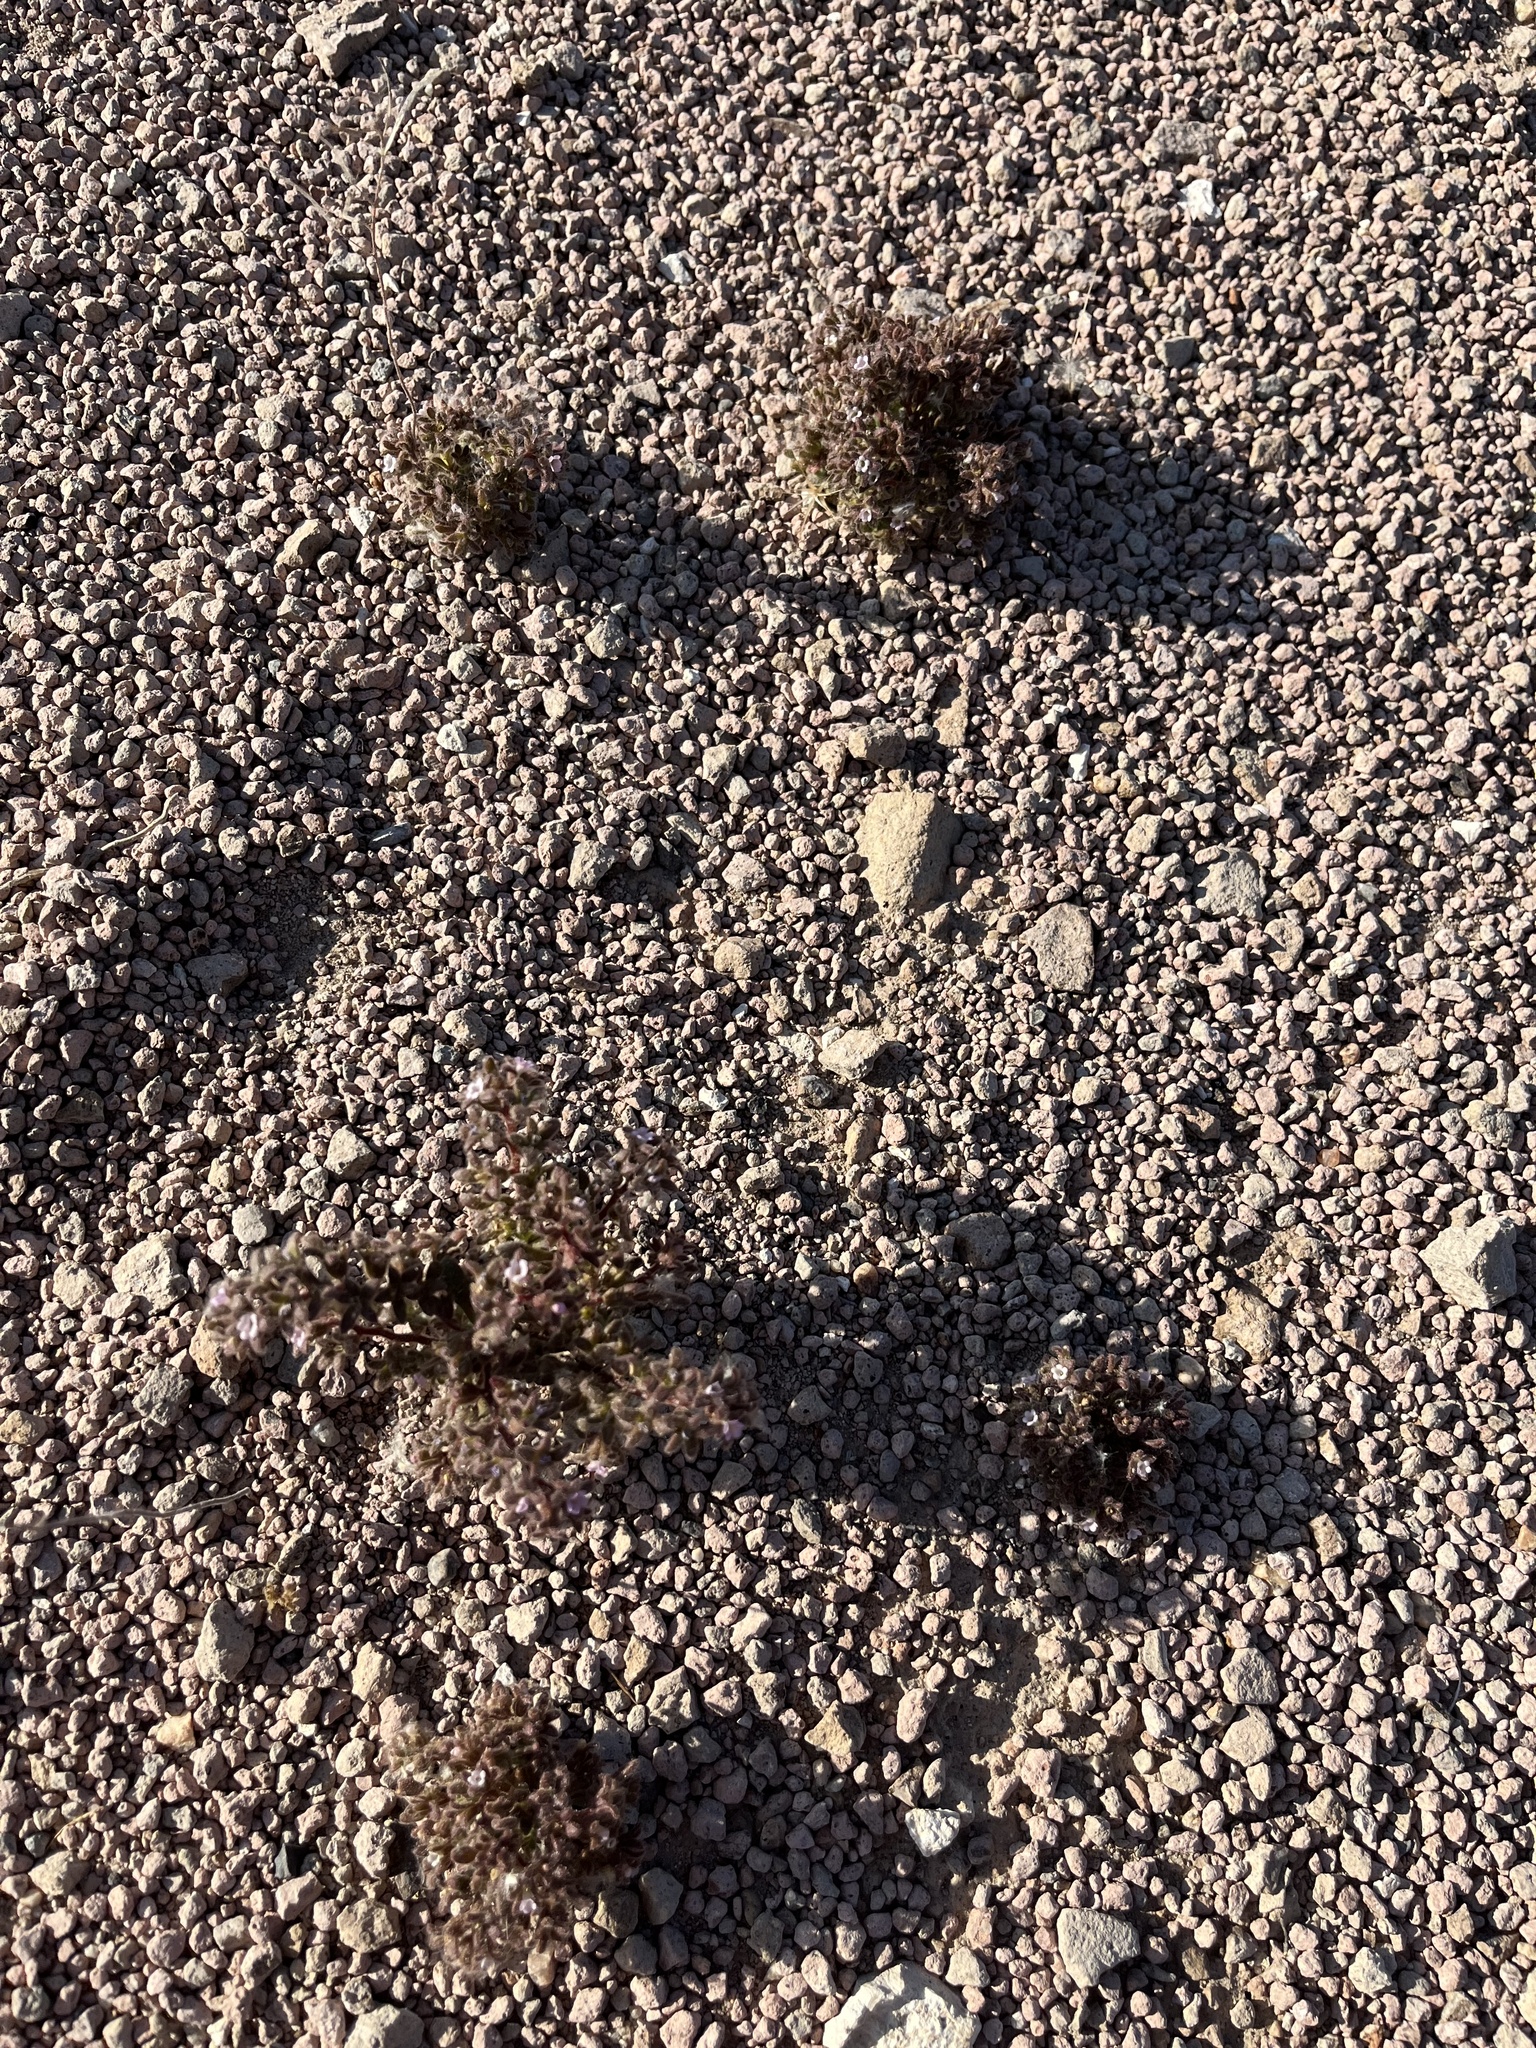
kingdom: Plantae
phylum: Tracheophyta
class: Magnoliopsida
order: Boraginales
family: Hydrophyllaceae
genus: Phacelia
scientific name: Phacelia saxicola
